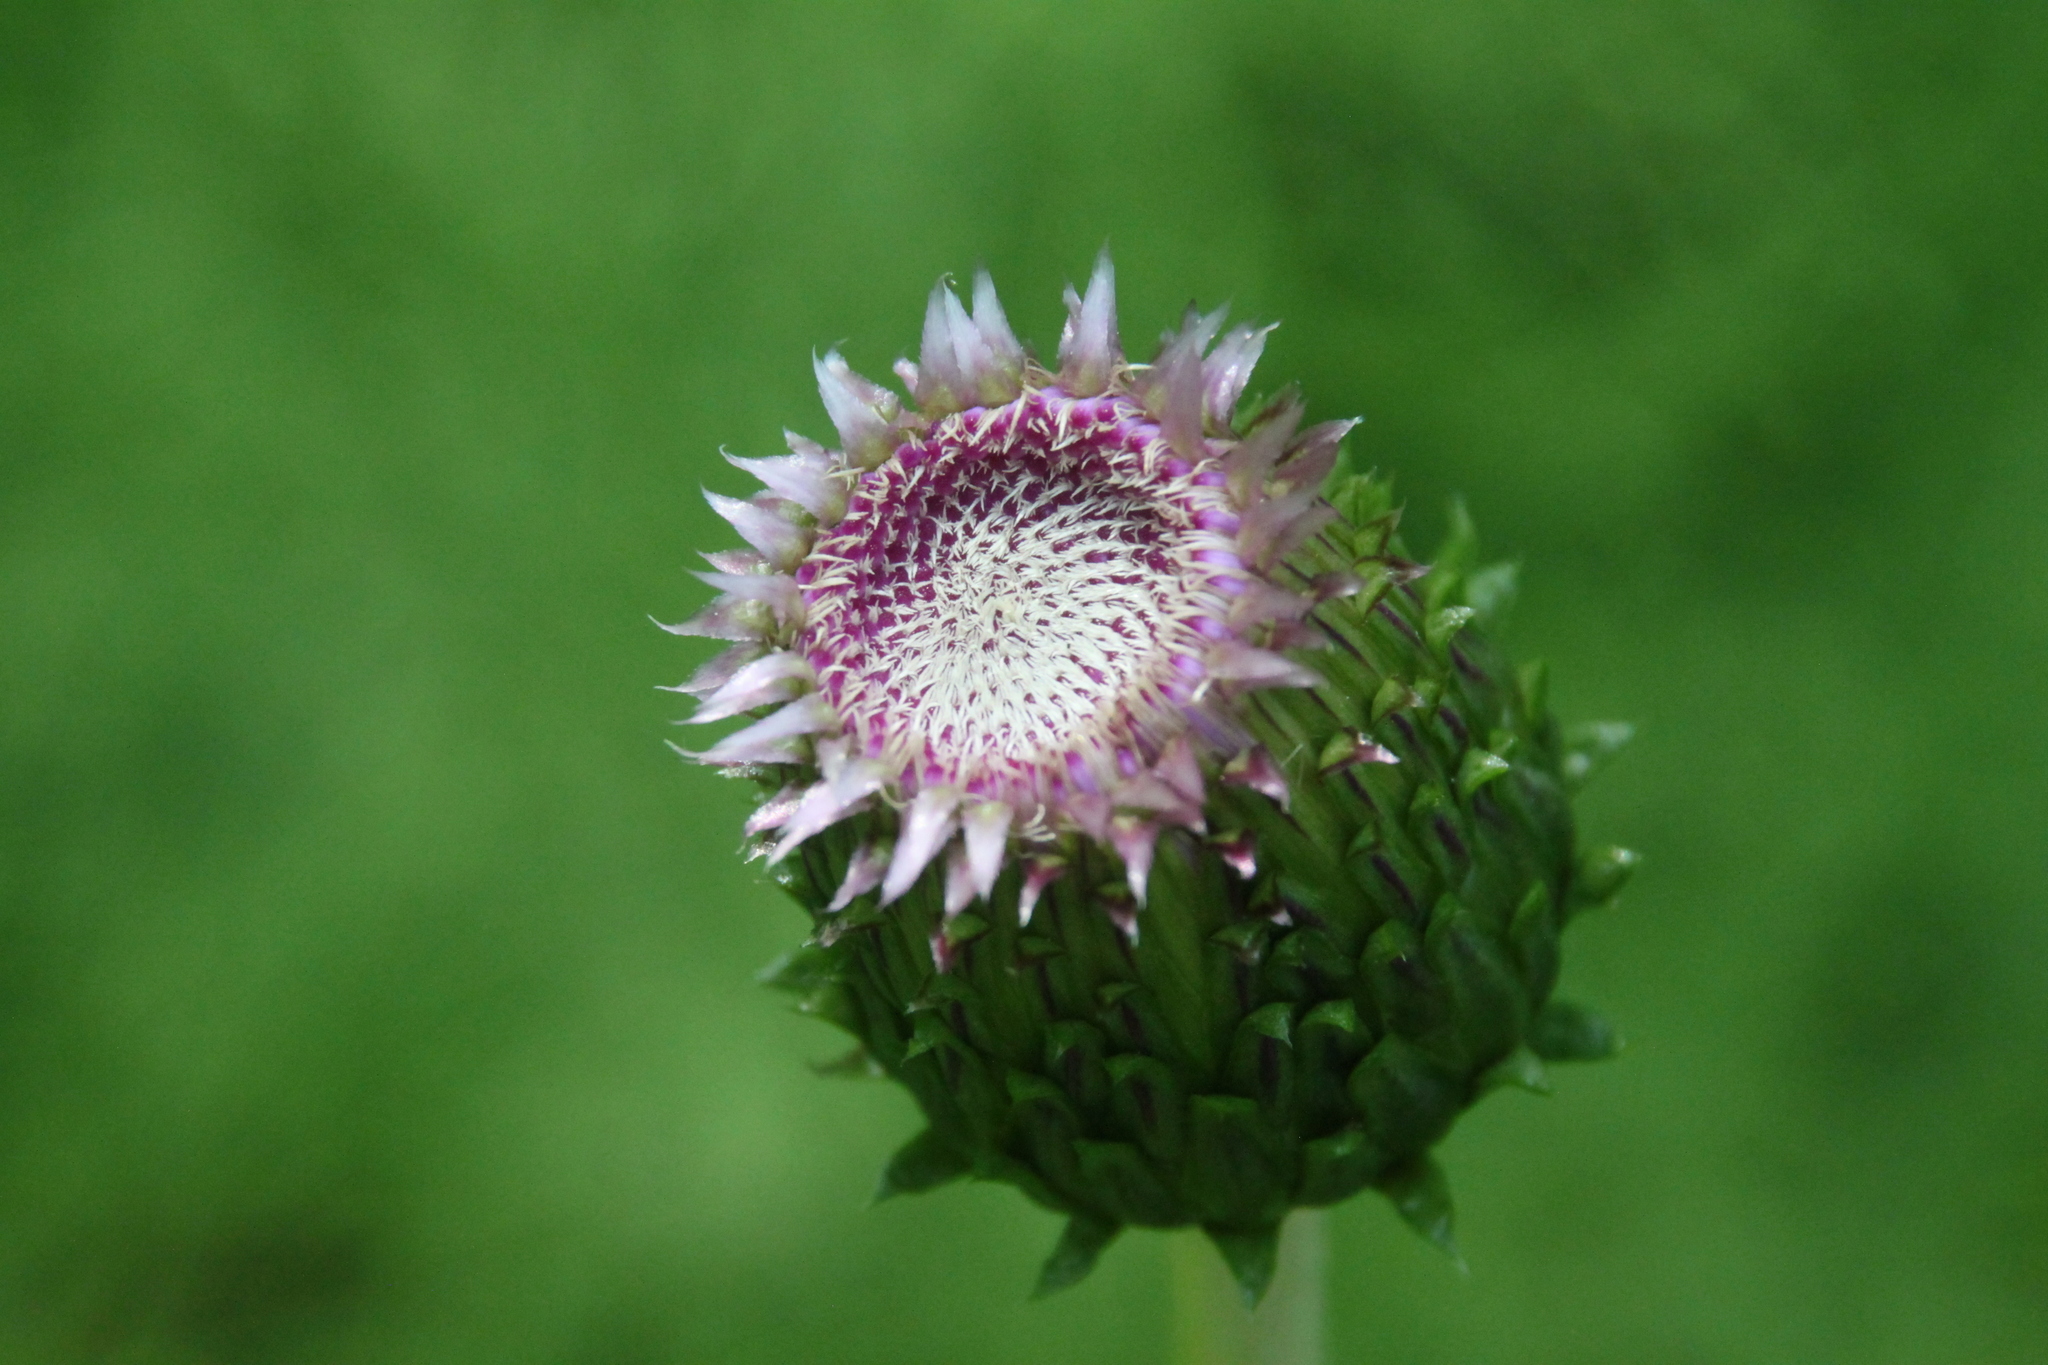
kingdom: Plantae
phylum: Tracheophyta
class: Magnoliopsida
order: Asterales
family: Asteraceae
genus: Cirsium
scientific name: Cirsium heterophyllum
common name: Melancholy thistle
